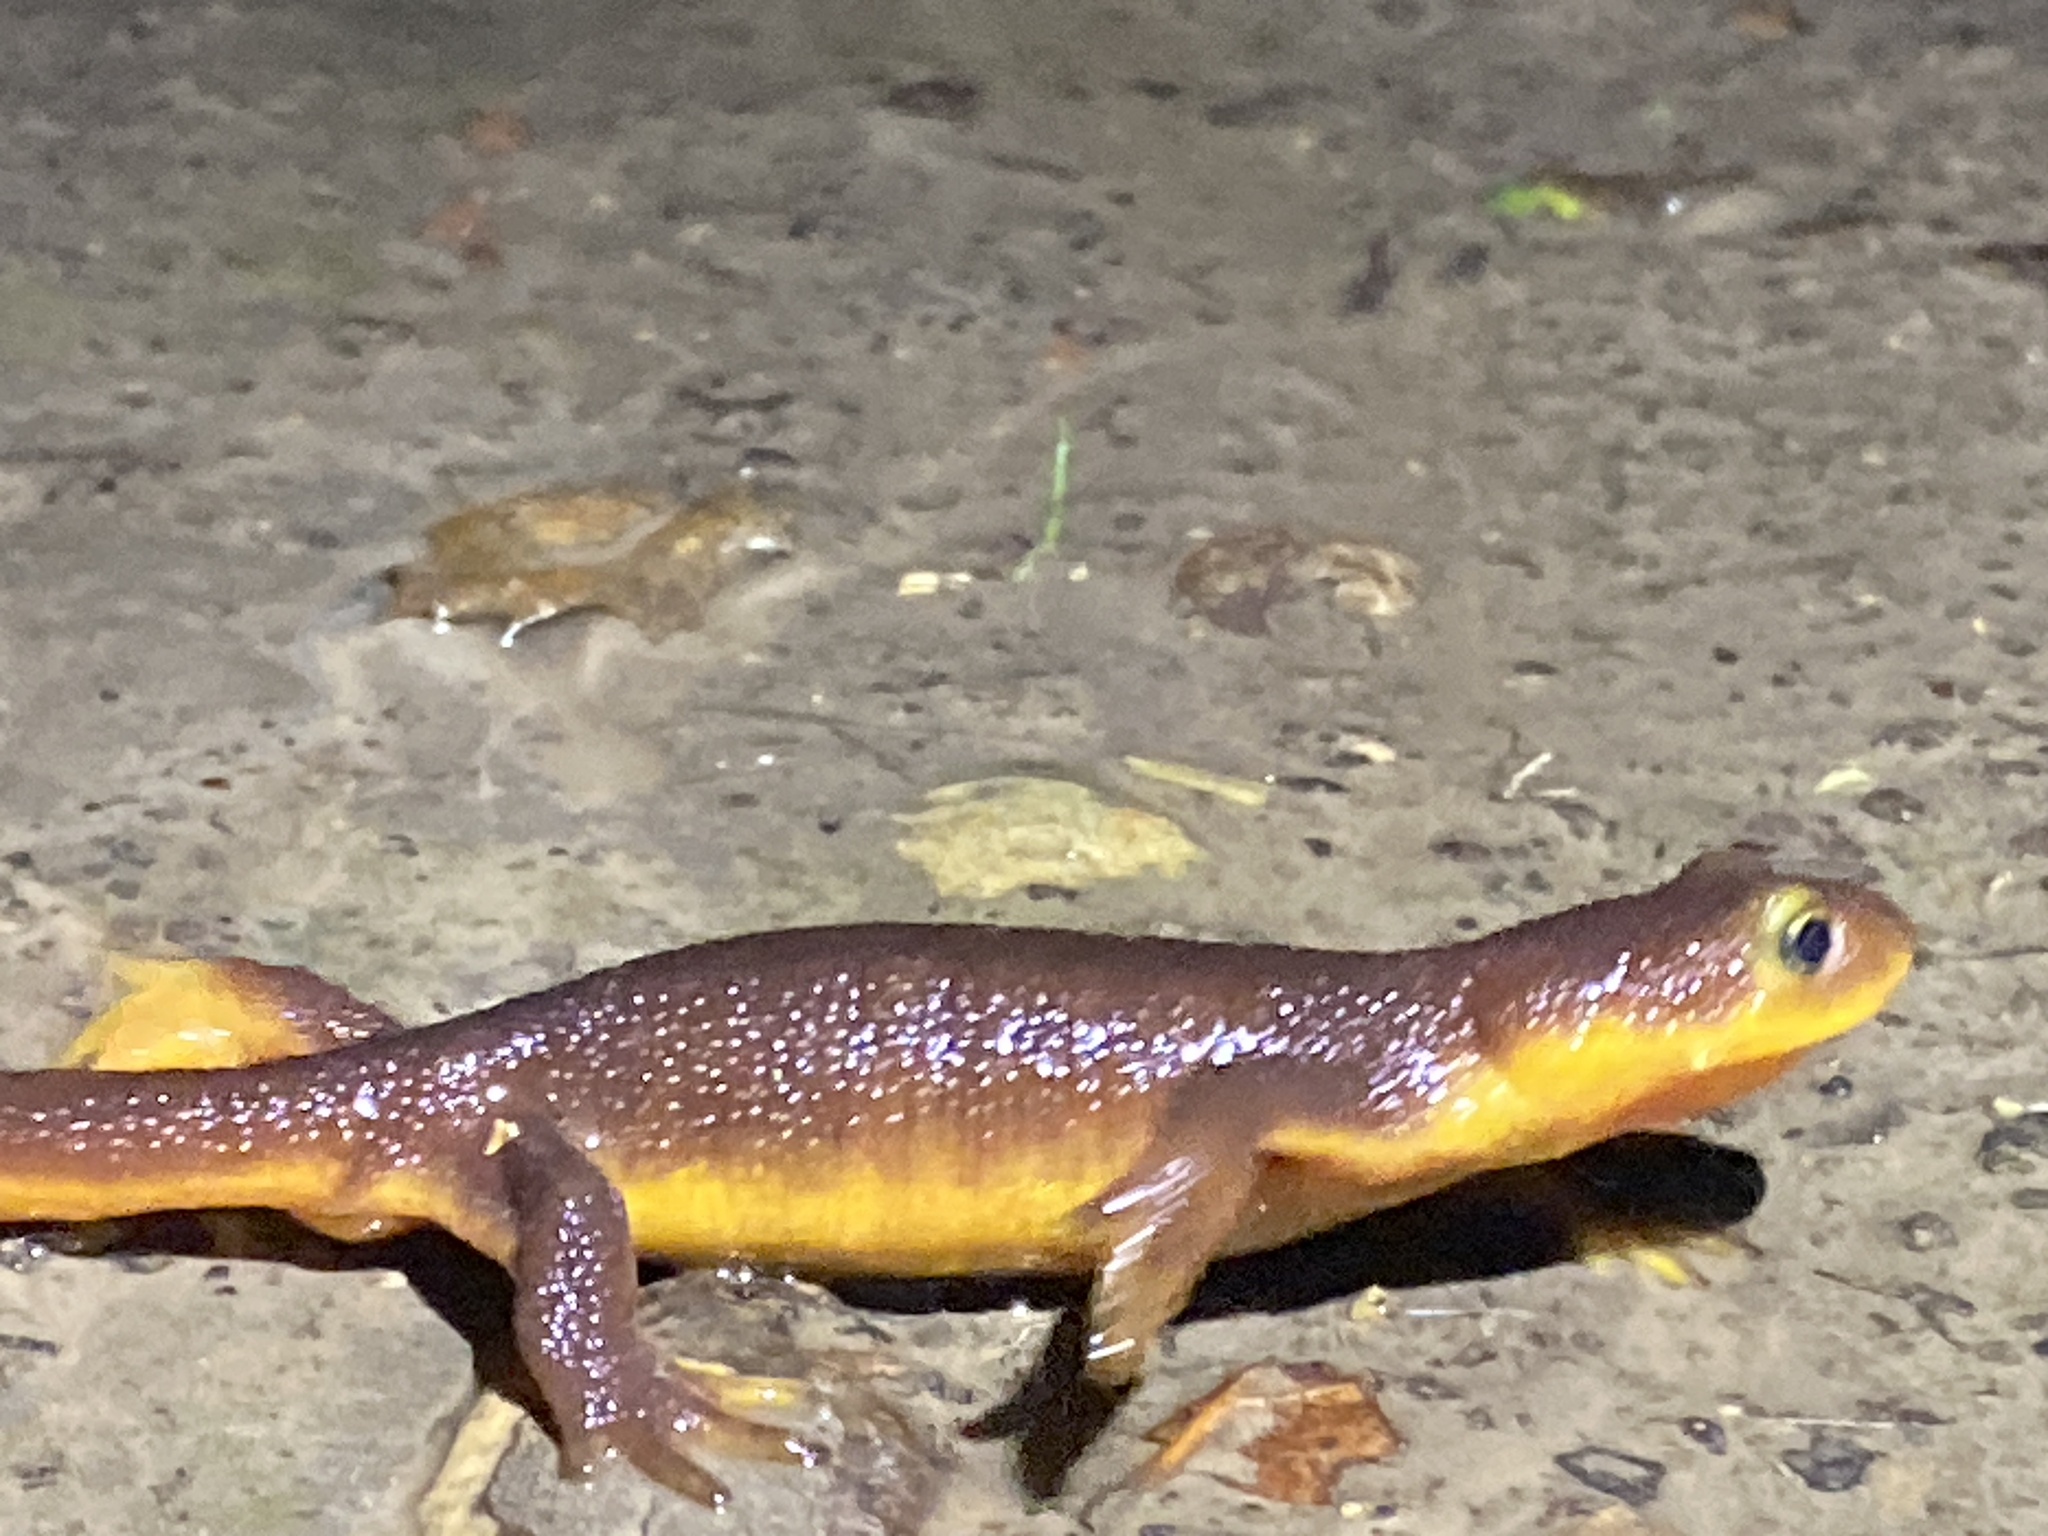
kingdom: Animalia
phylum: Chordata
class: Amphibia
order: Caudata
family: Salamandridae
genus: Taricha
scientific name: Taricha torosa
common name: California newt
